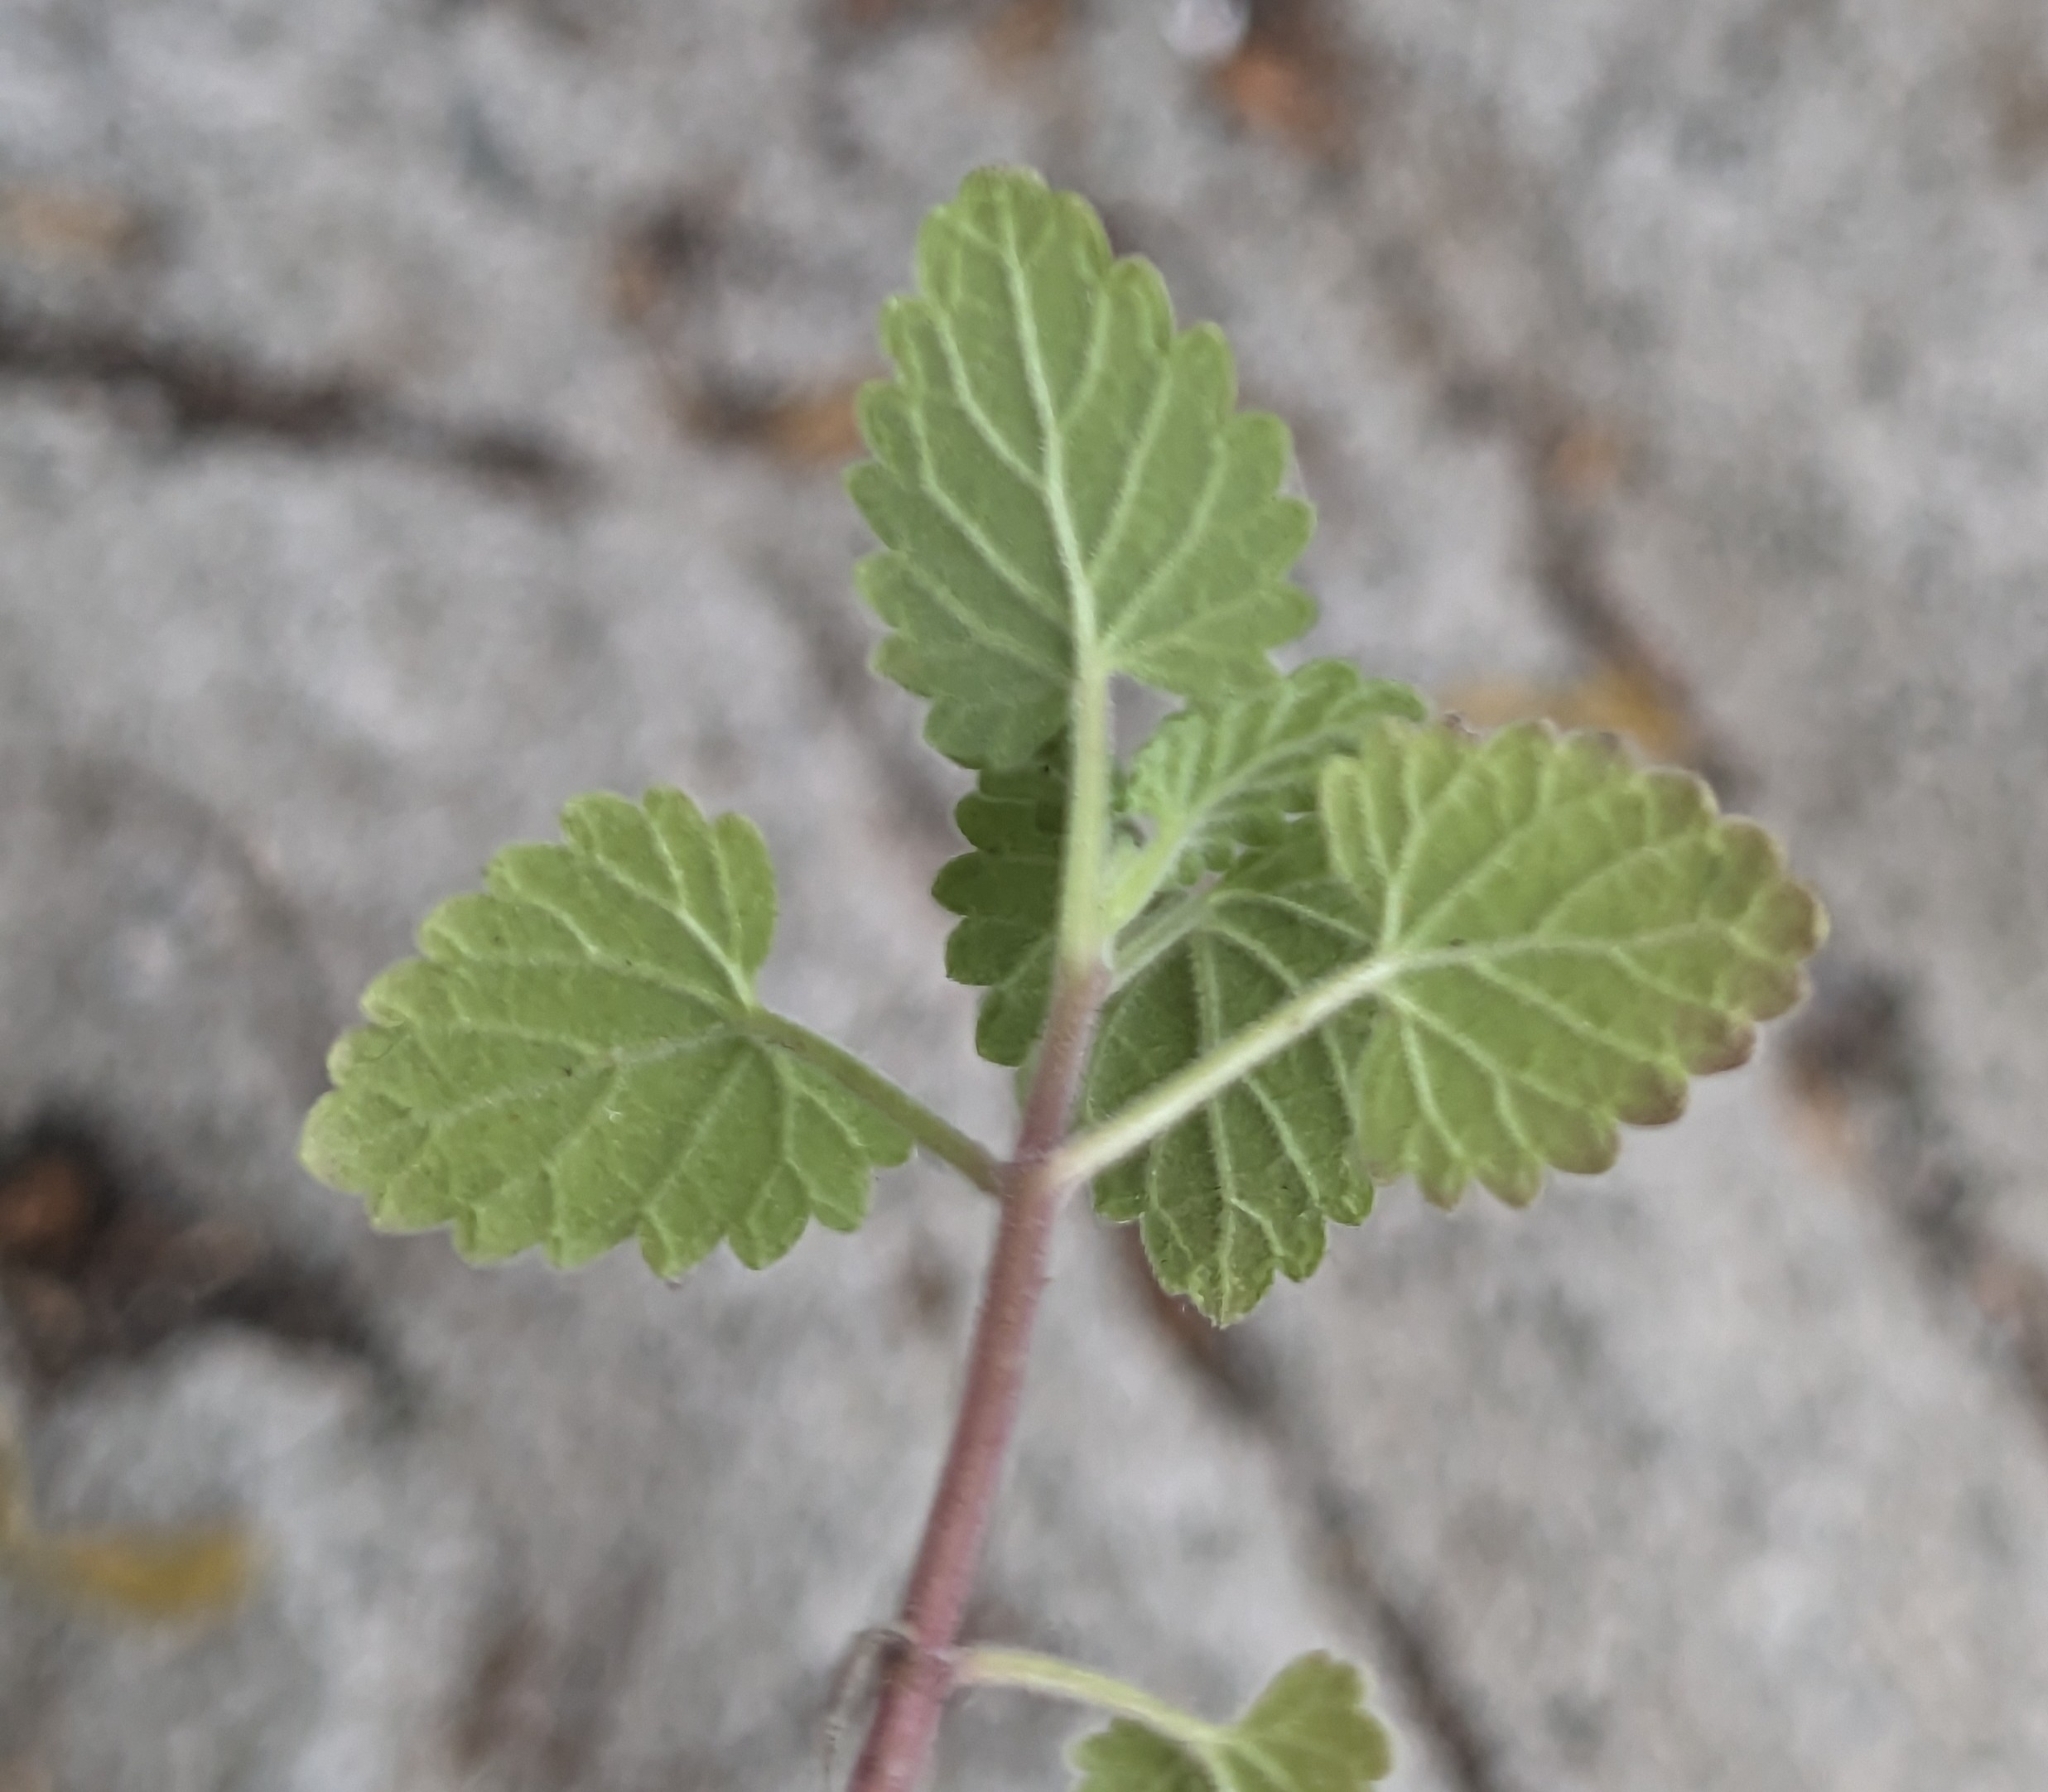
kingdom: Plantae
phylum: Tracheophyta
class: Magnoliopsida
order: Lamiales
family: Lamiaceae
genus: Nepeta
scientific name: Nepeta cataria
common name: Catnip
